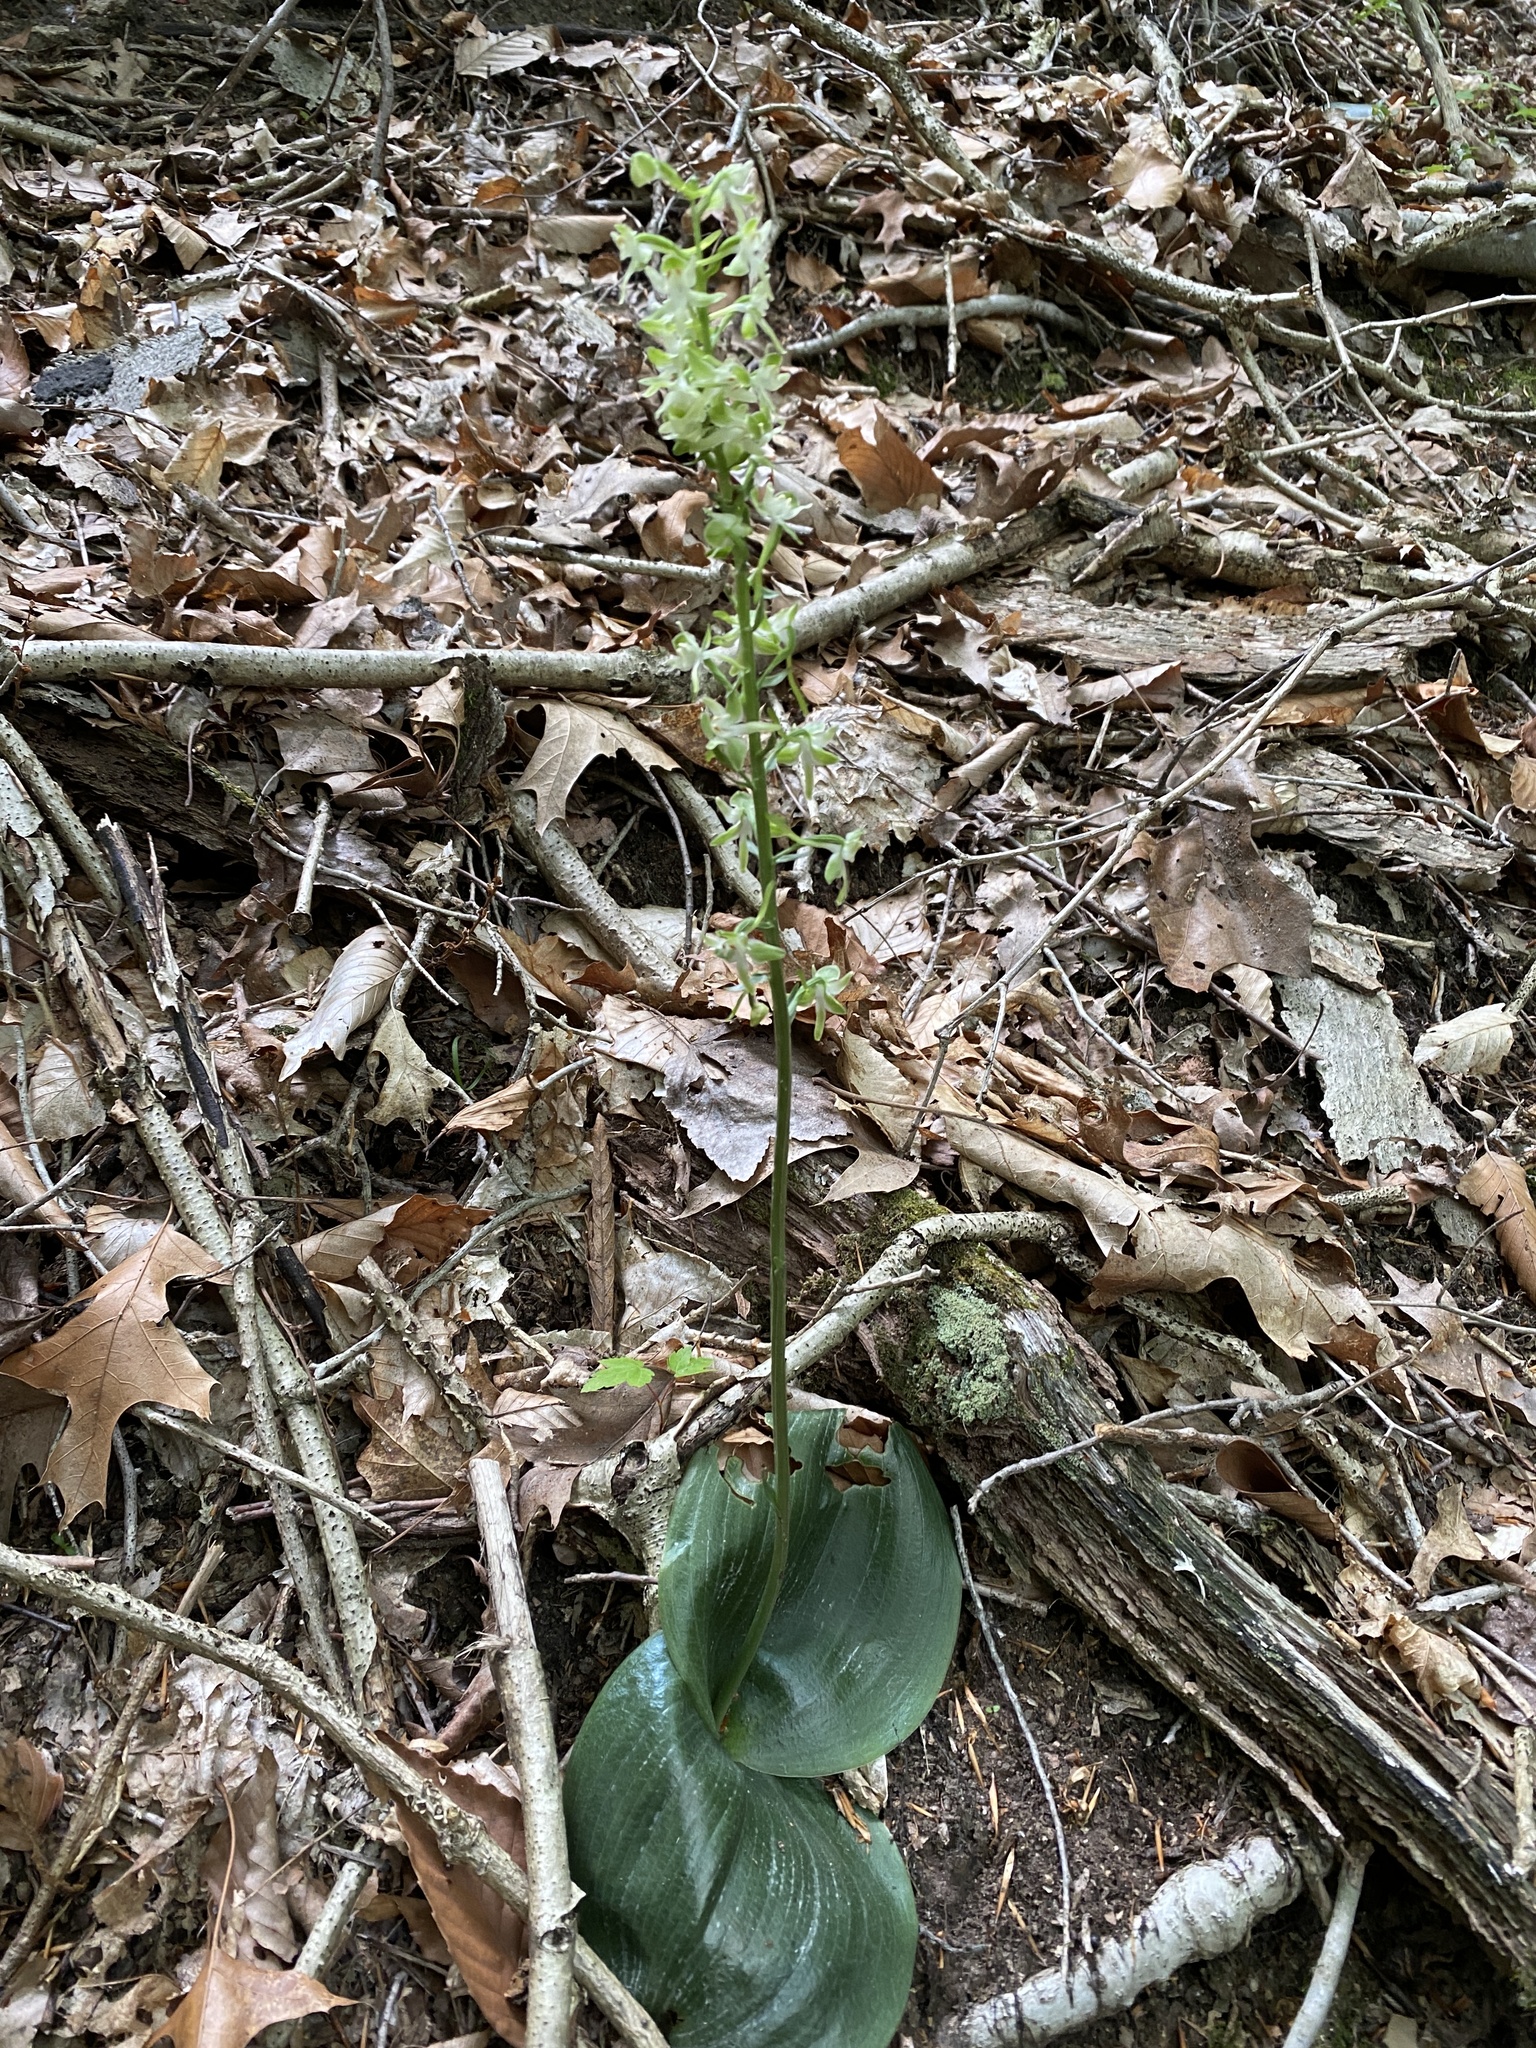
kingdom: Plantae
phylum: Tracheophyta
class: Liliopsida
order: Asparagales
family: Orchidaceae
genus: Platanthera
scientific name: Platanthera orbiculata
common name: Large round-leaved orchid
